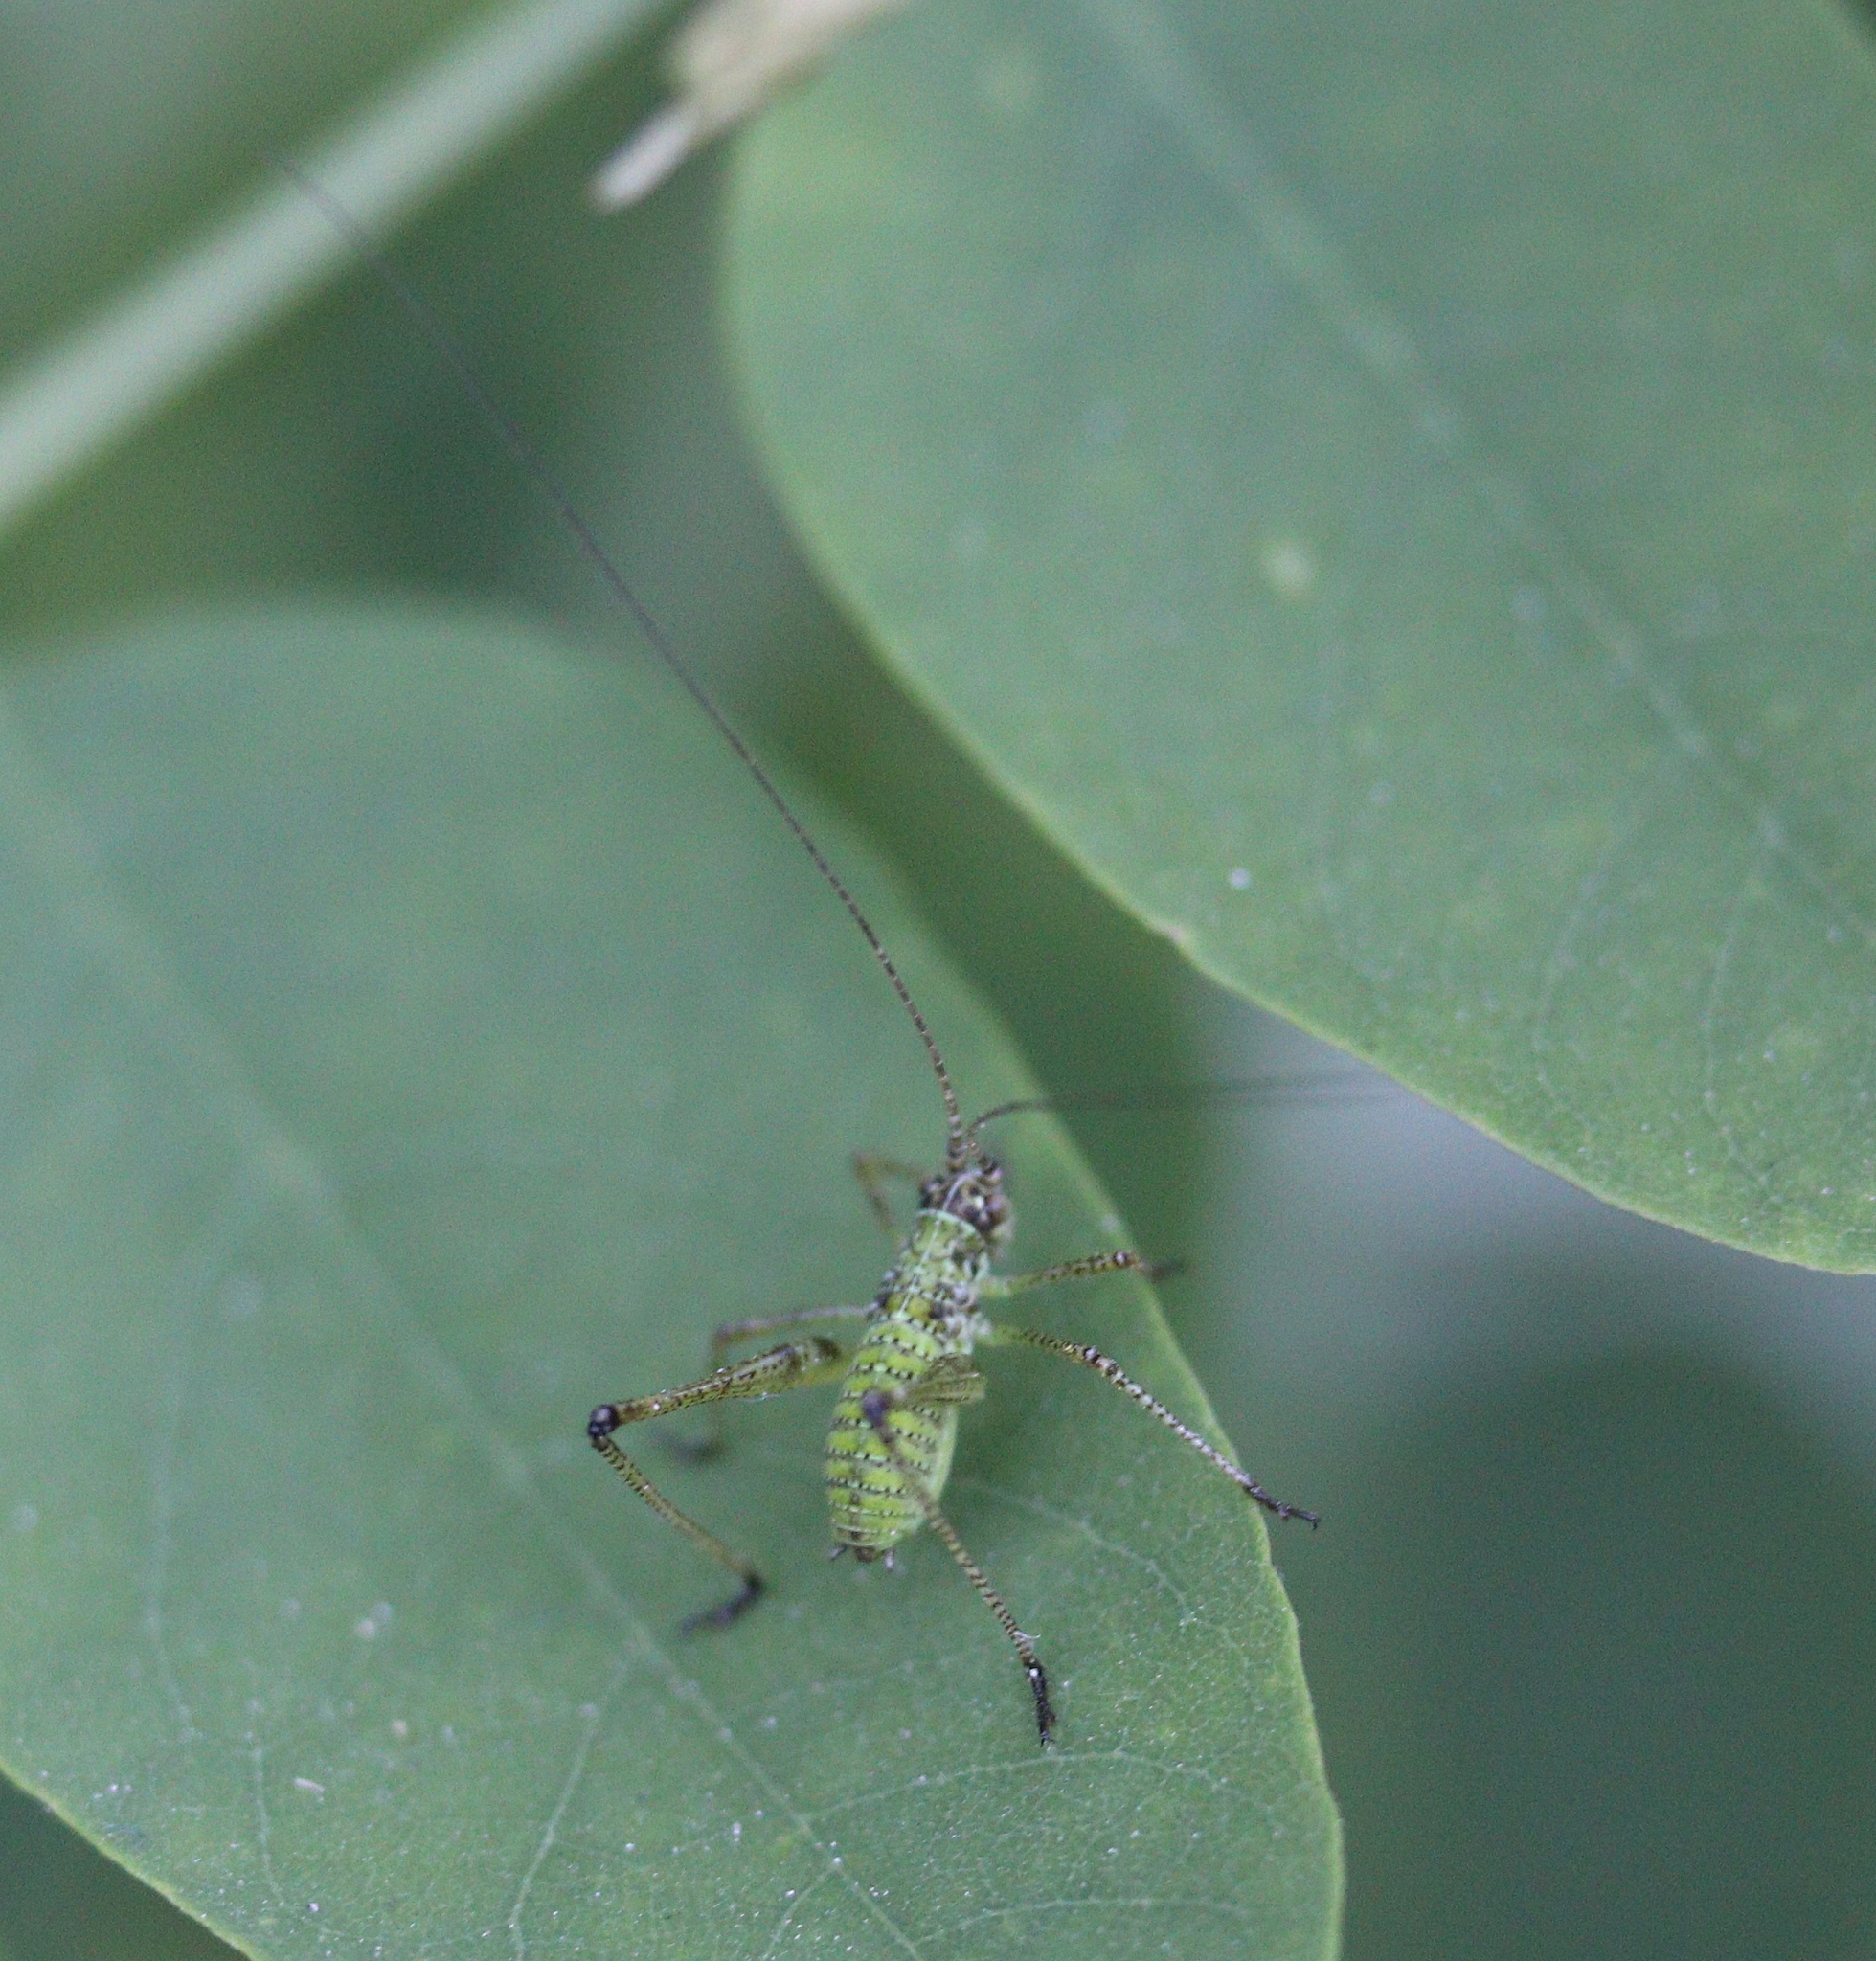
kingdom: Animalia
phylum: Arthropoda
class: Insecta
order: Orthoptera
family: Tettigoniidae
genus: Phaneroptera
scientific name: Phaneroptera falcata
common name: Sickle-bearing bush-cricket
